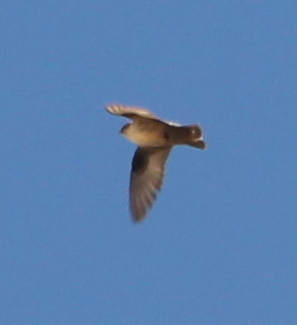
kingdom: Animalia
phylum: Chordata
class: Aves
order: Passeriformes
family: Hirundinidae
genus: Ptyonoprogne
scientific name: Ptyonoprogne rupestris
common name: Eurasian crag martin
